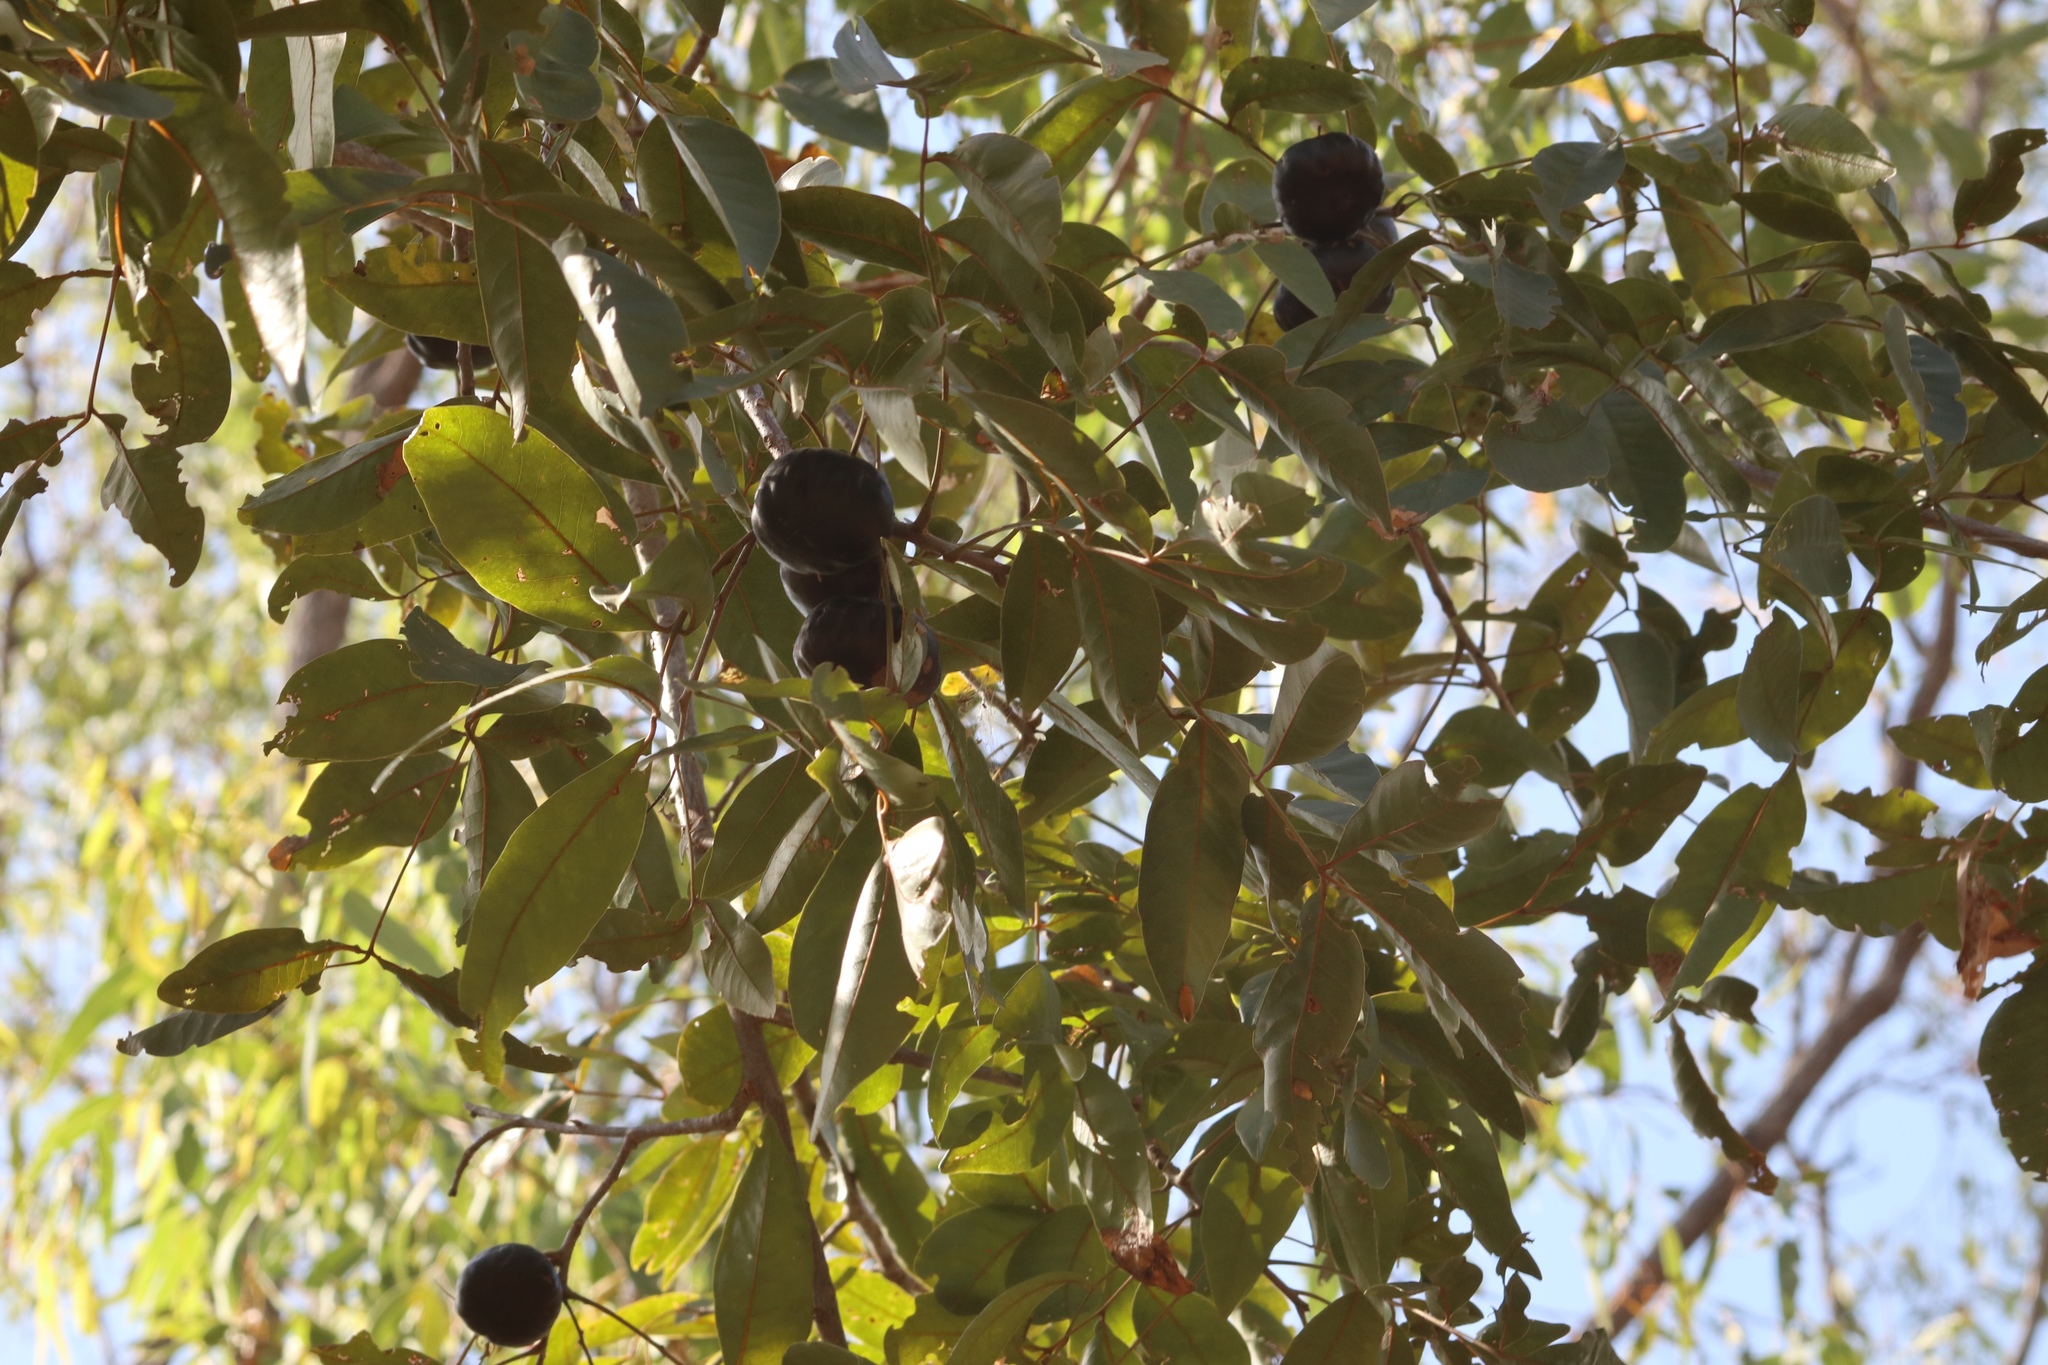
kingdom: Plantae
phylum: Tracheophyta
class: Magnoliopsida
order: Sapindales
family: Anacardiaceae
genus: Pleiogynium
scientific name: Pleiogynium timoriense
